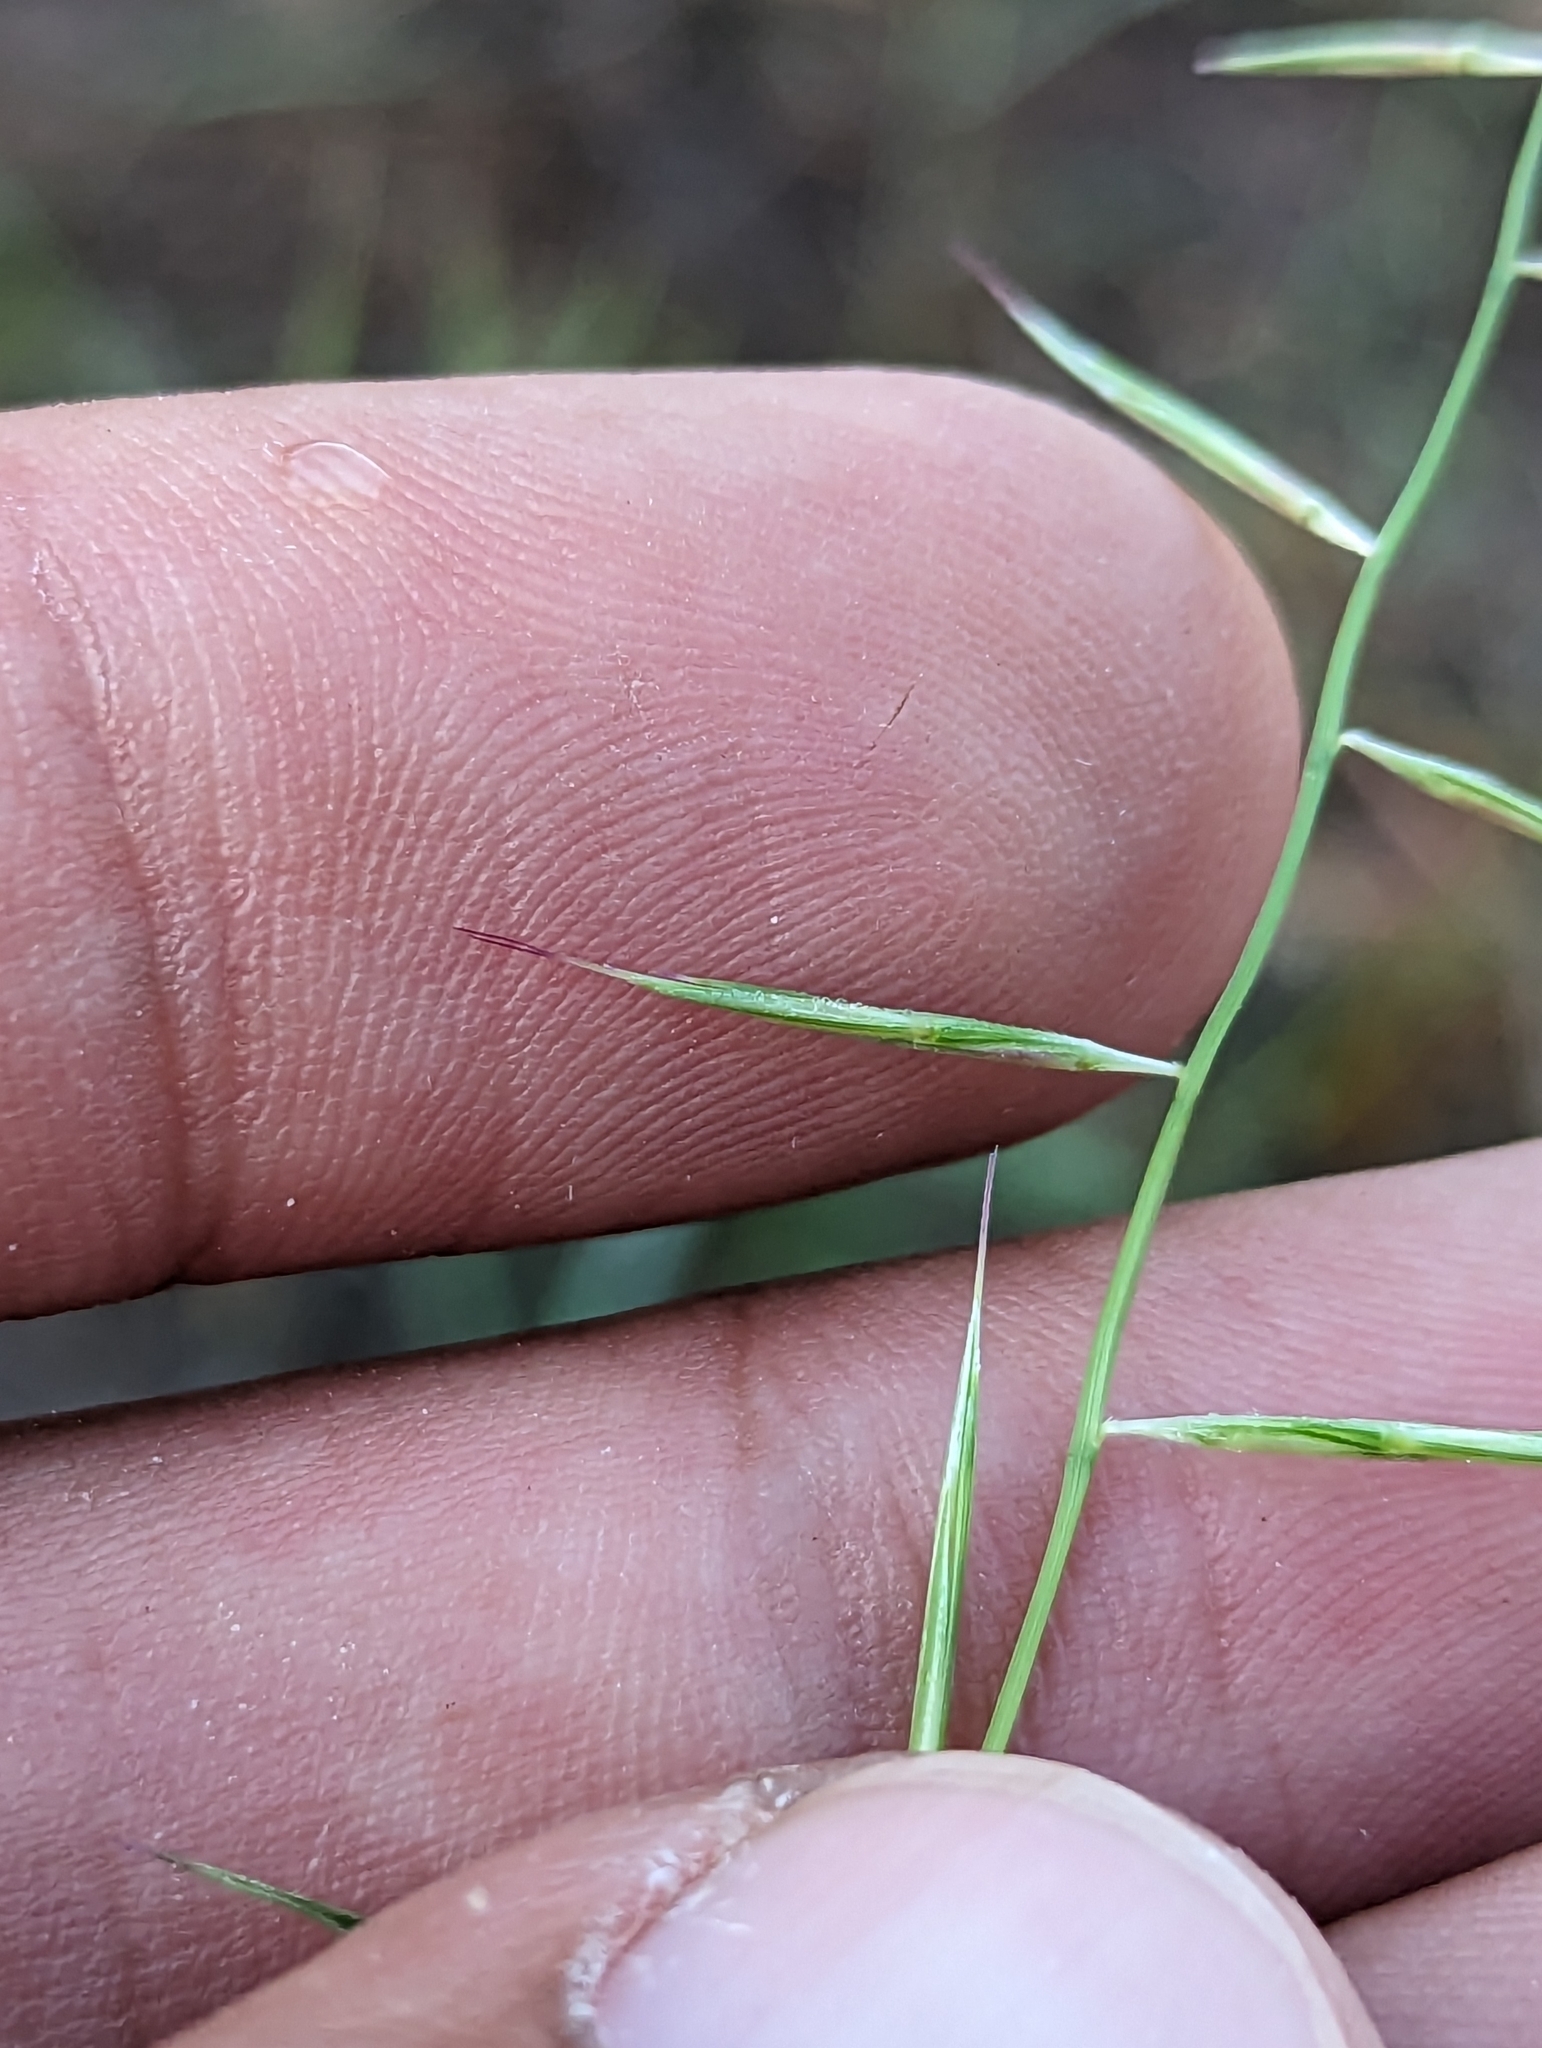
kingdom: Plantae
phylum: Tracheophyta
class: Liliopsida
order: Poales
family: Poaceae
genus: Bouteloua
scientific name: Bouteloua aristidoides
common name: Needle grama
